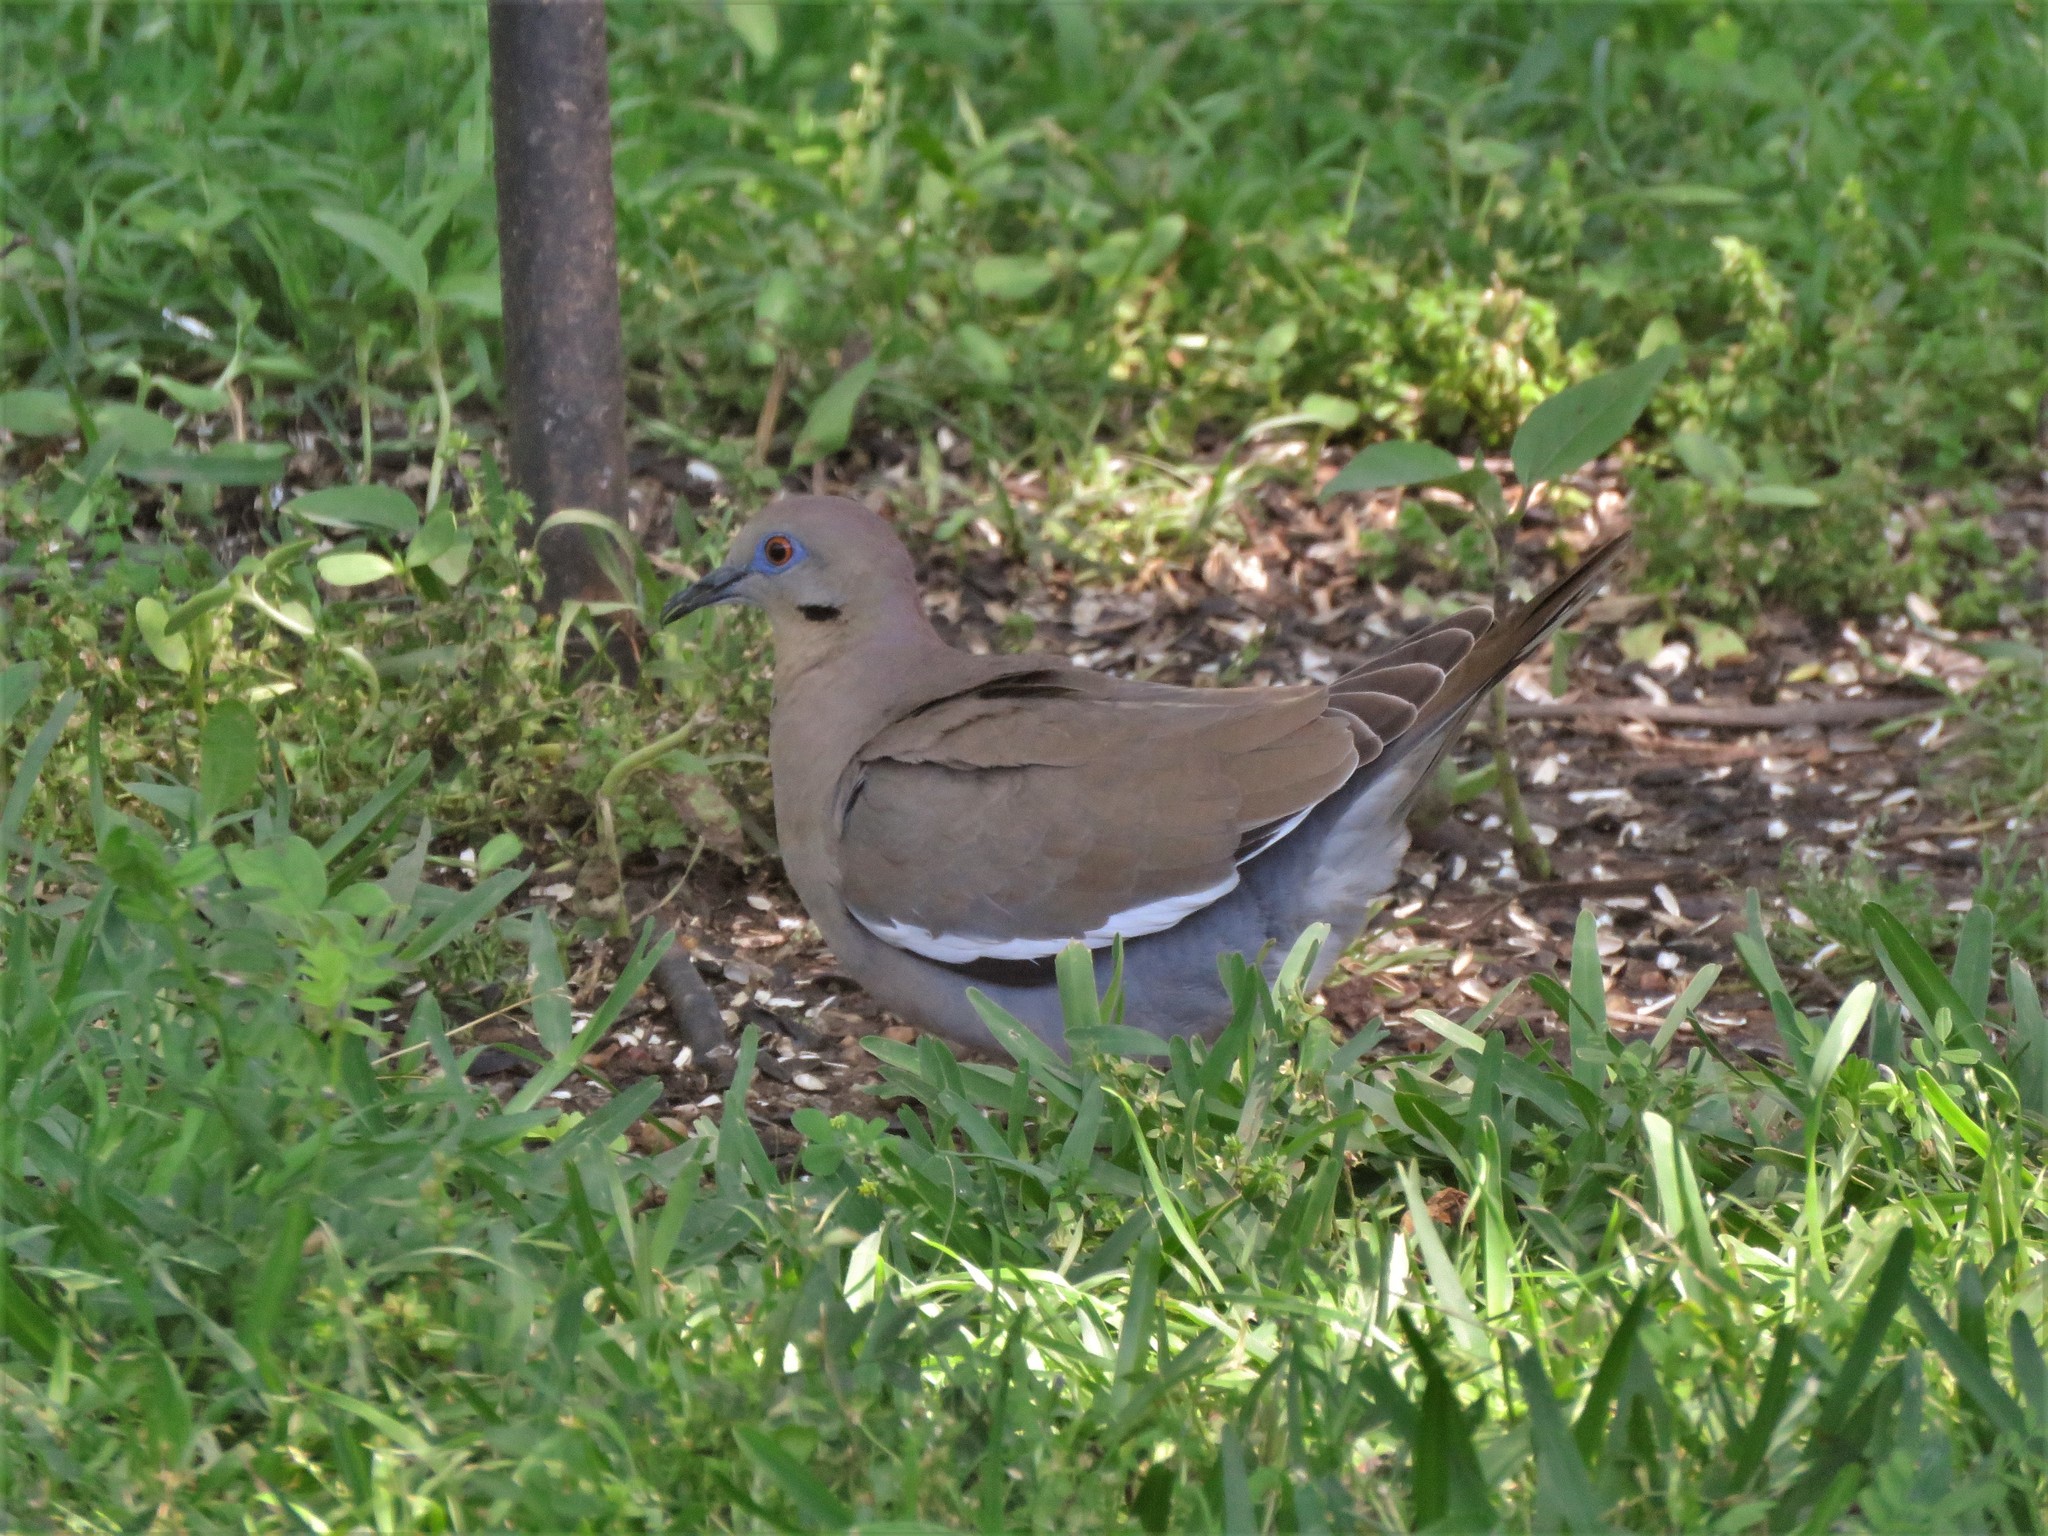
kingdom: Animalia
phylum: Chordata
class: Aves
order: Columbiformes
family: Columbidae
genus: Zenaida
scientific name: Zenaida asiatica
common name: White-winged dove
